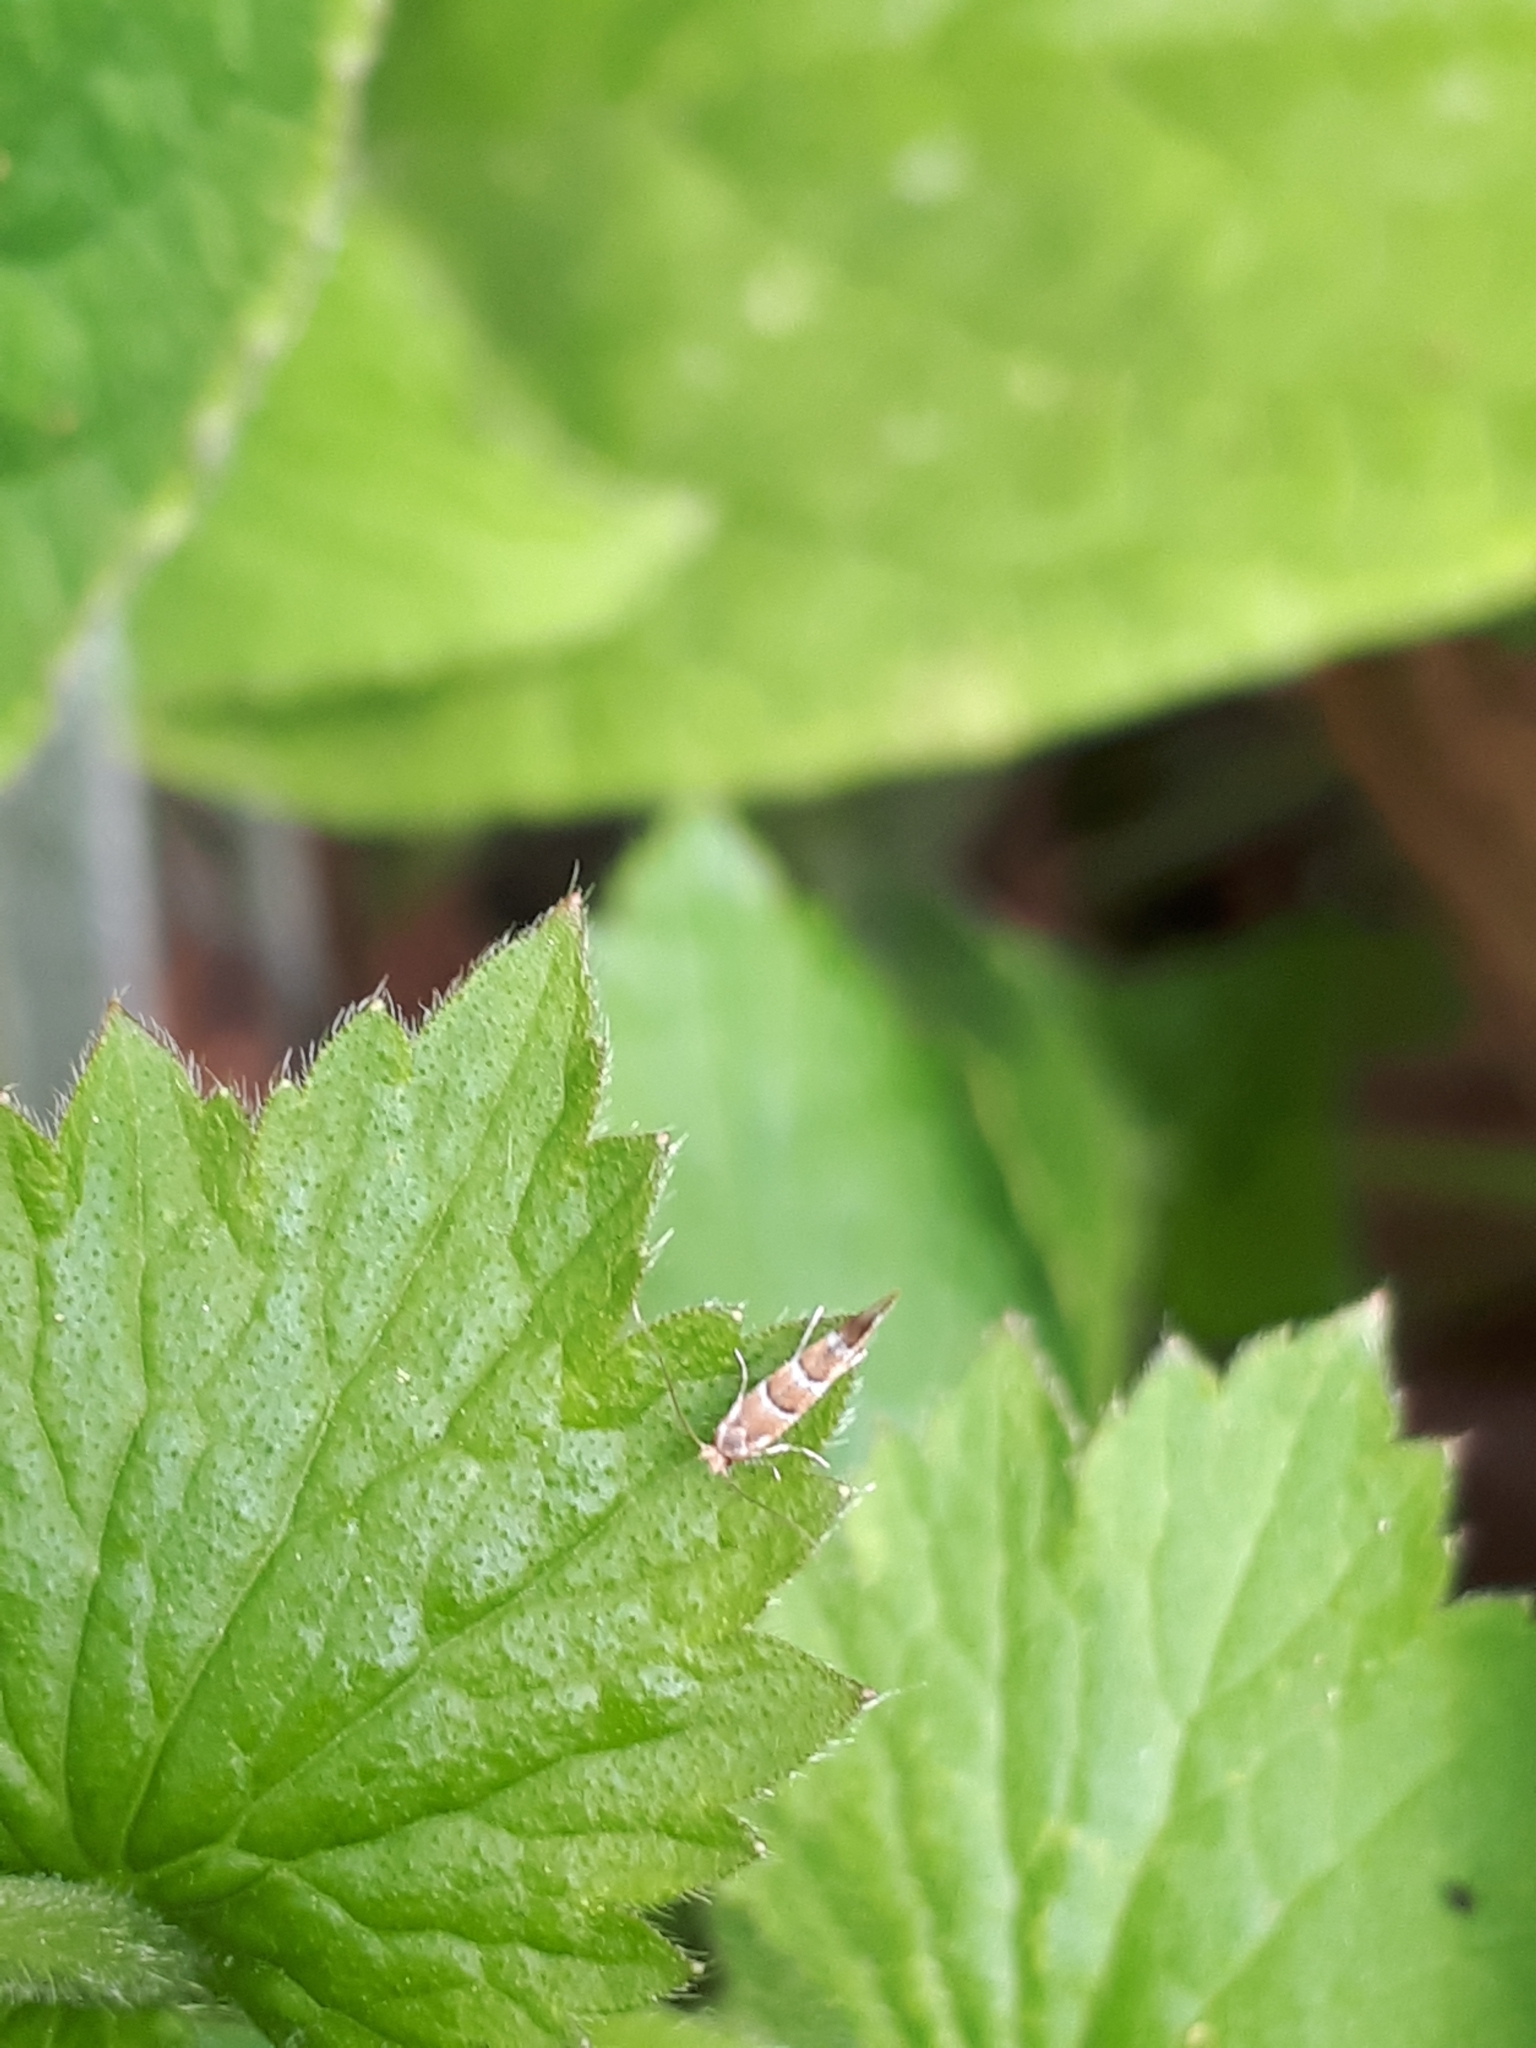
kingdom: Animalia
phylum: Arthropoda
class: Insecta
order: Lepidoptera
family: Gracillariidae
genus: Cameraria
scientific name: Cameraria ohridella
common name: Horse-chestnut leaf-miner
